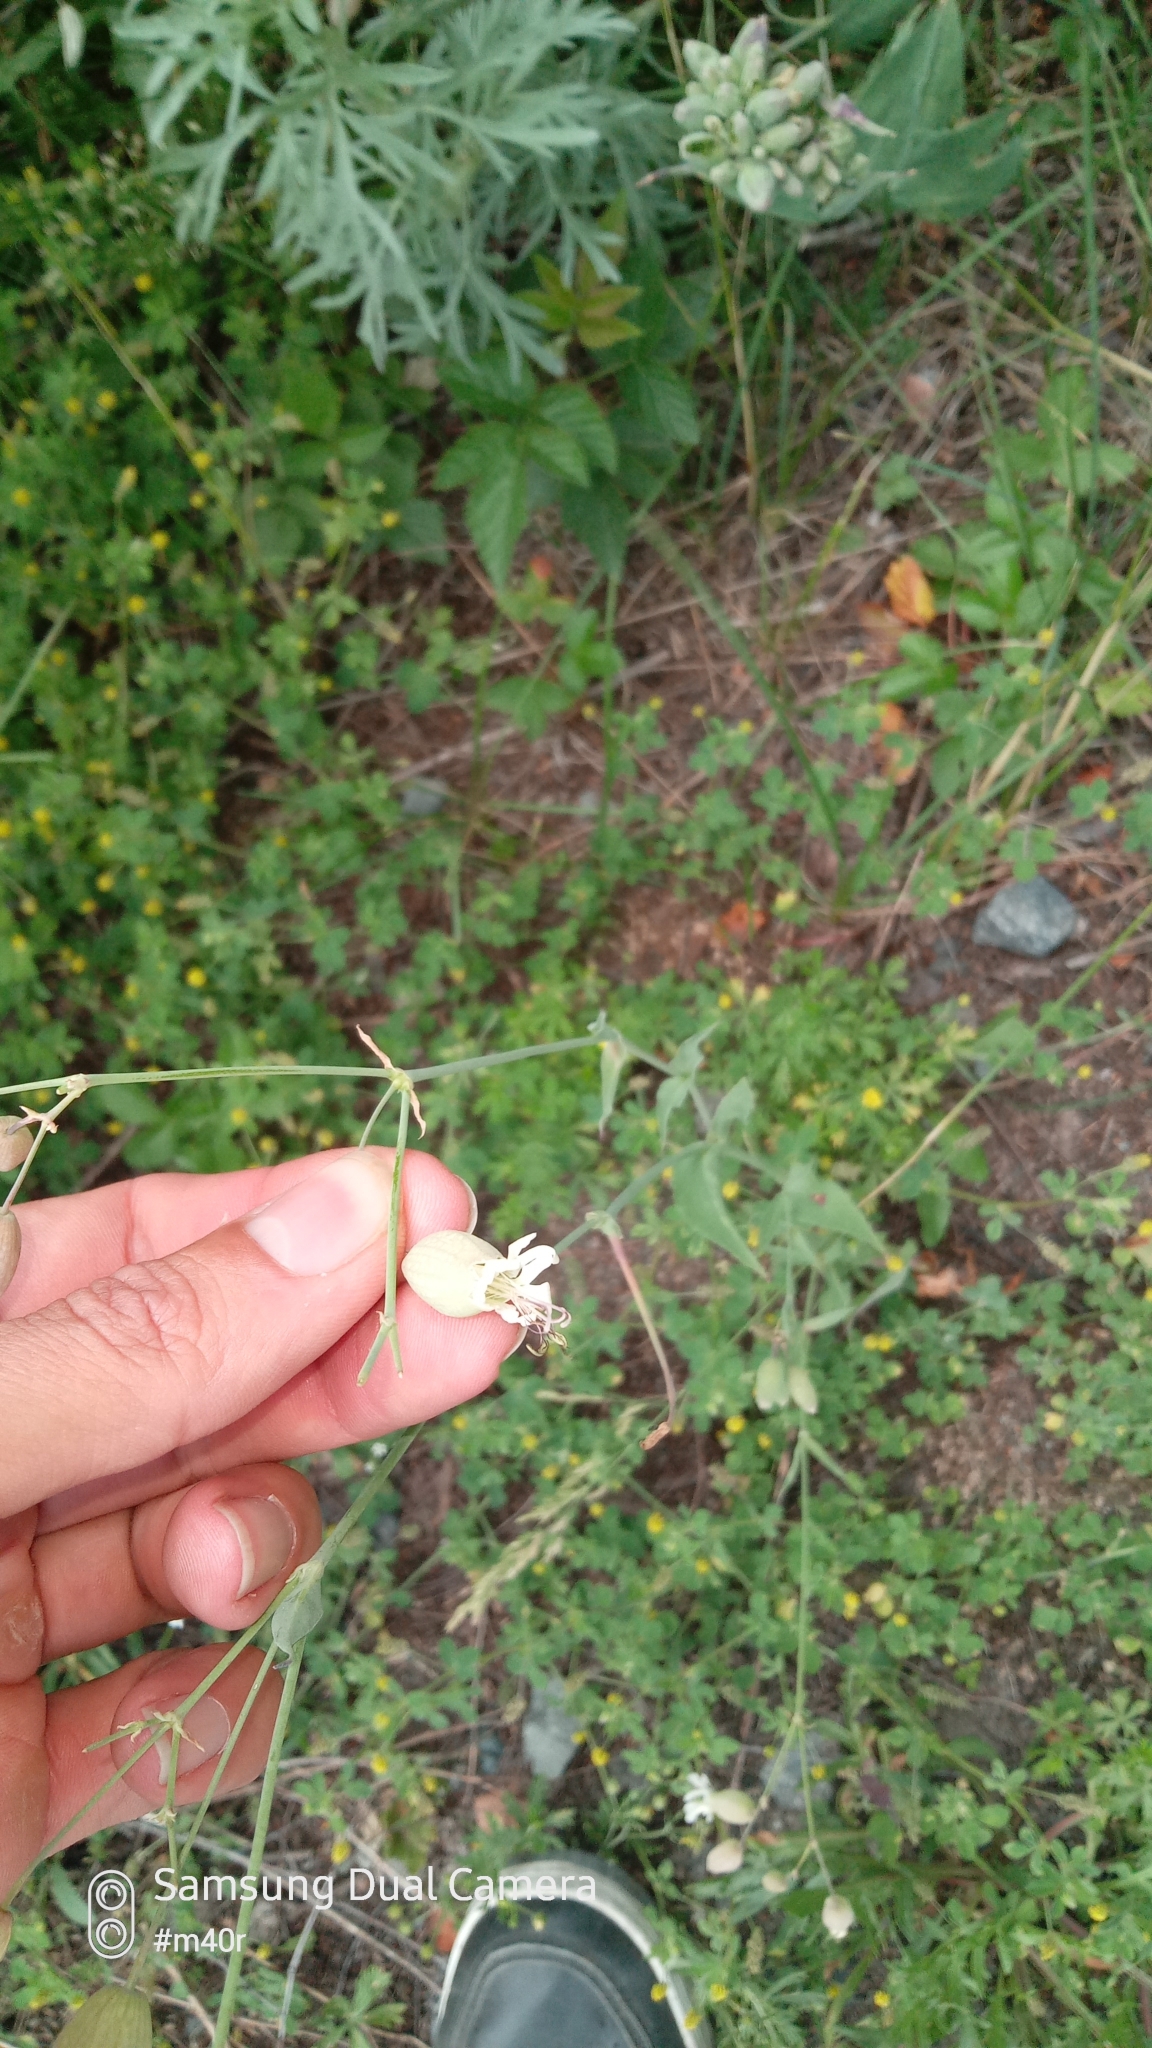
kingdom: Plantae
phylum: Tracheophyta
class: Magnoliopsida
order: Caryophyllales
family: Caryophyllaceae
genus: Silene
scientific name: Silene vulgaris
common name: Bladder campion
